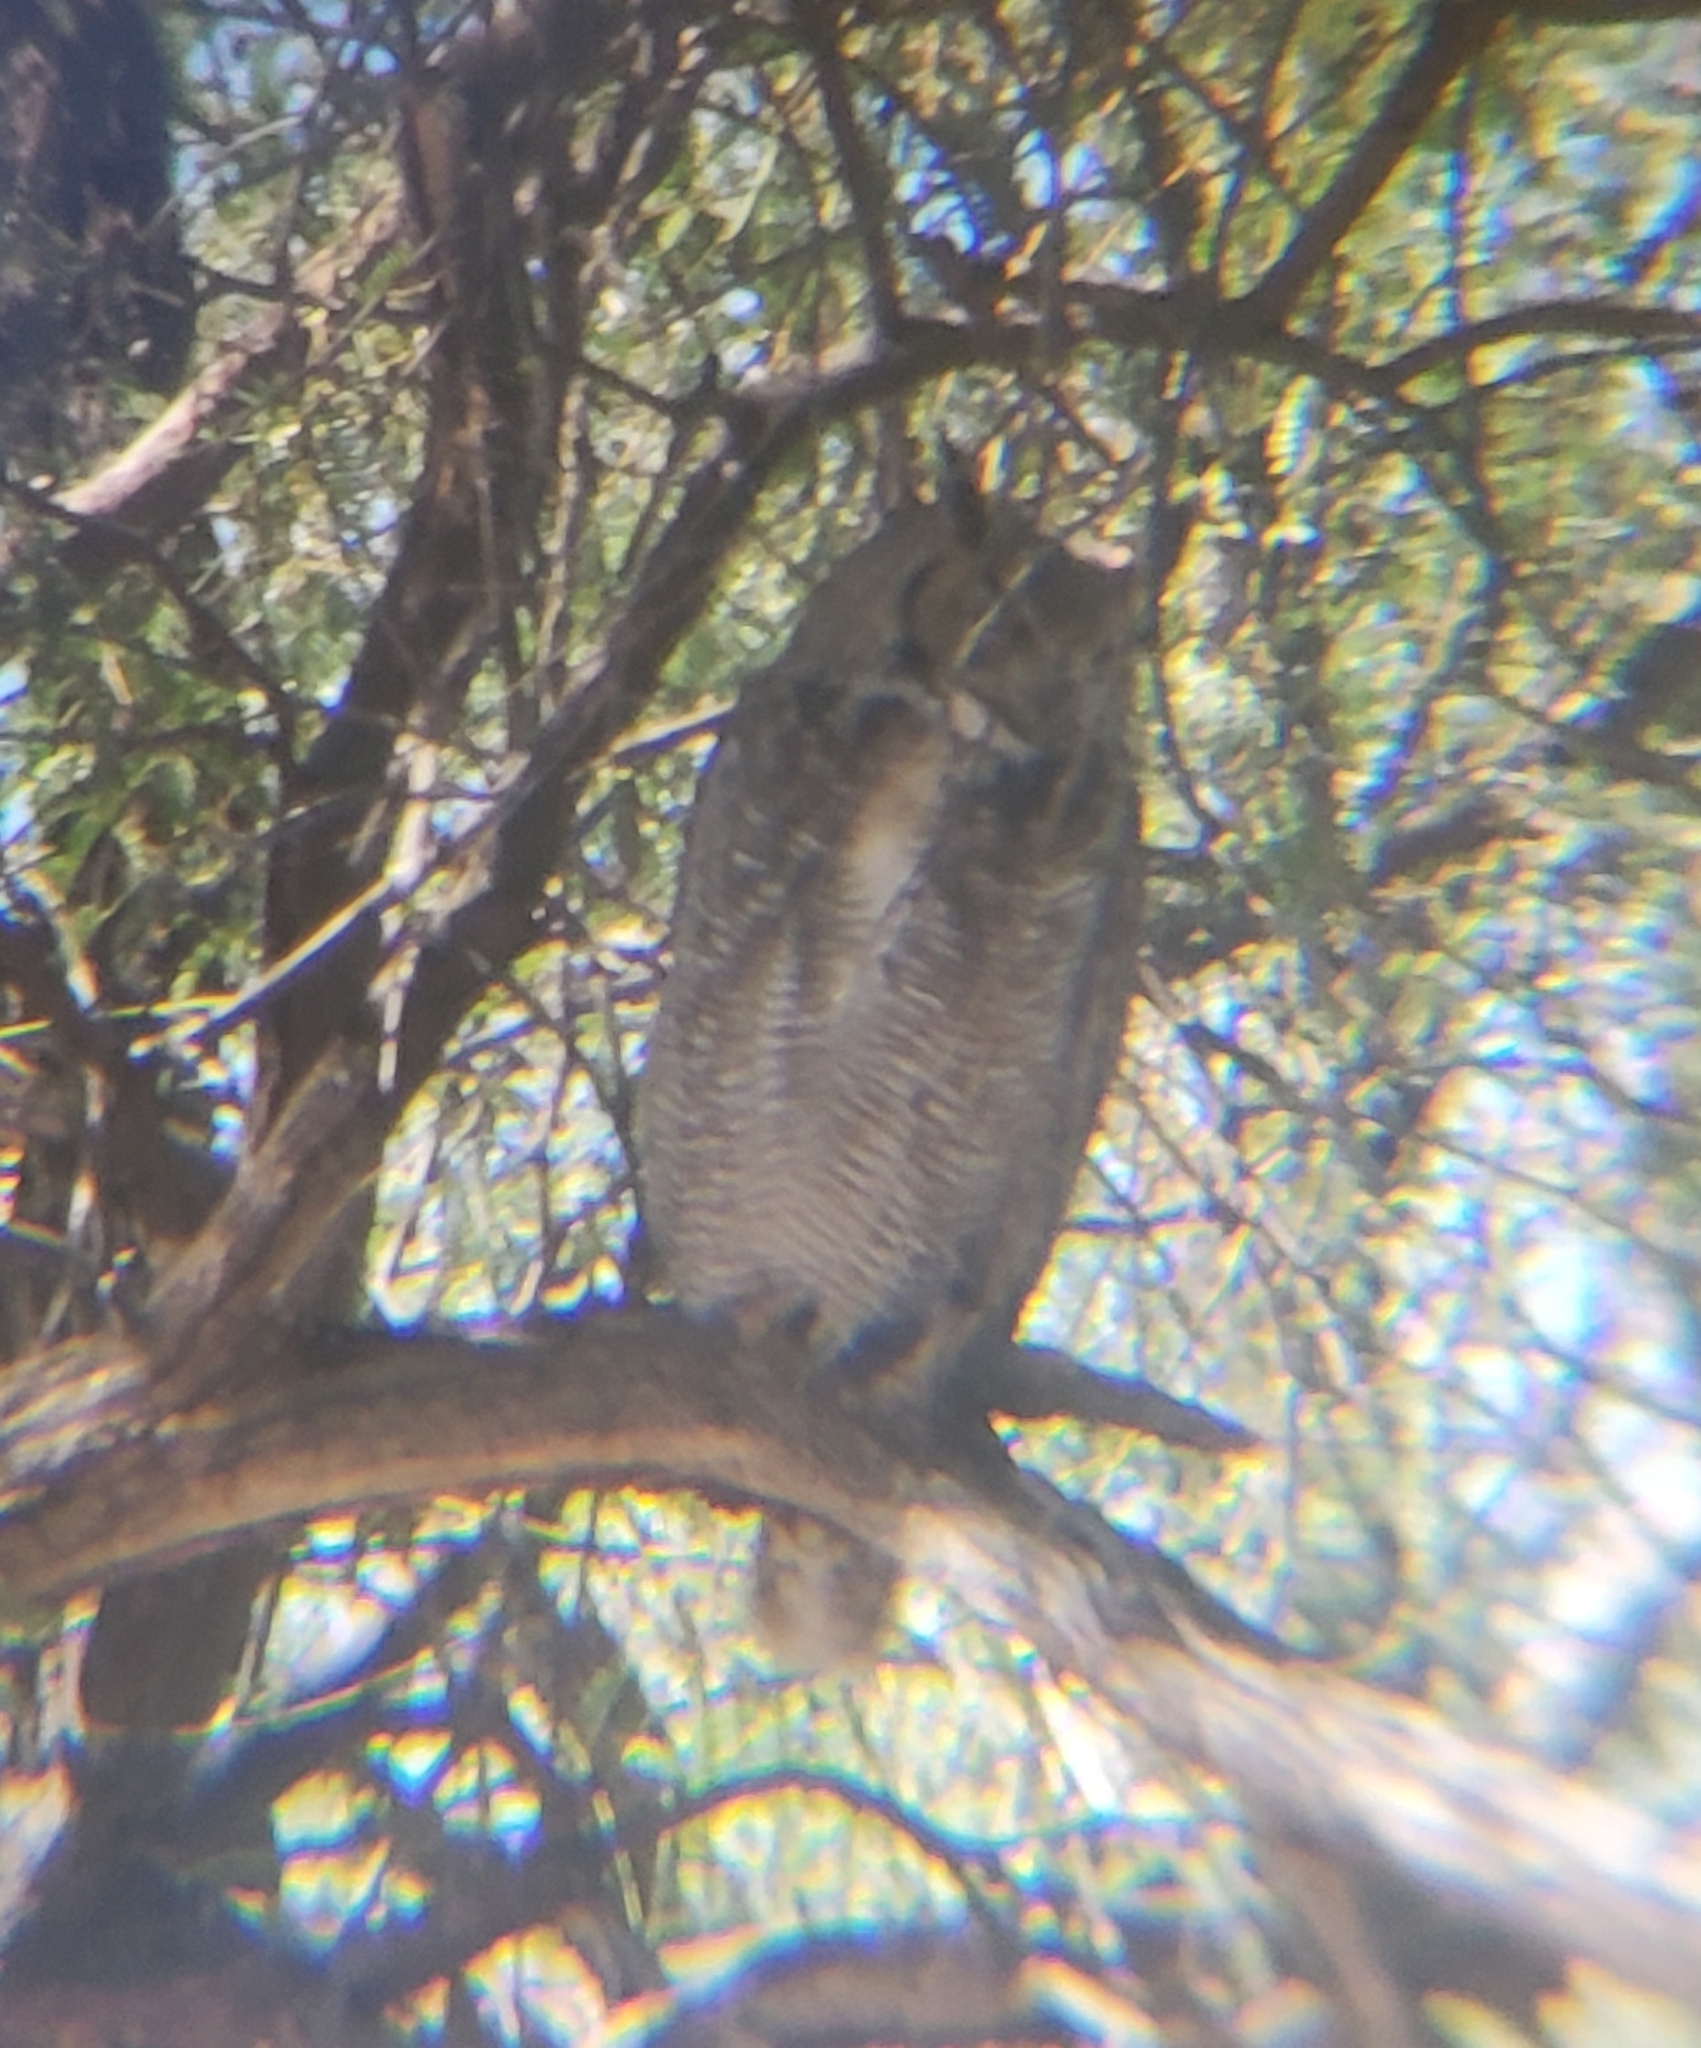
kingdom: Animalia
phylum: Chordata
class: Aves
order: Strigiformes
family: Strigidae
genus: Bubo
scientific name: Bubo virginianus
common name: Great horned owl
